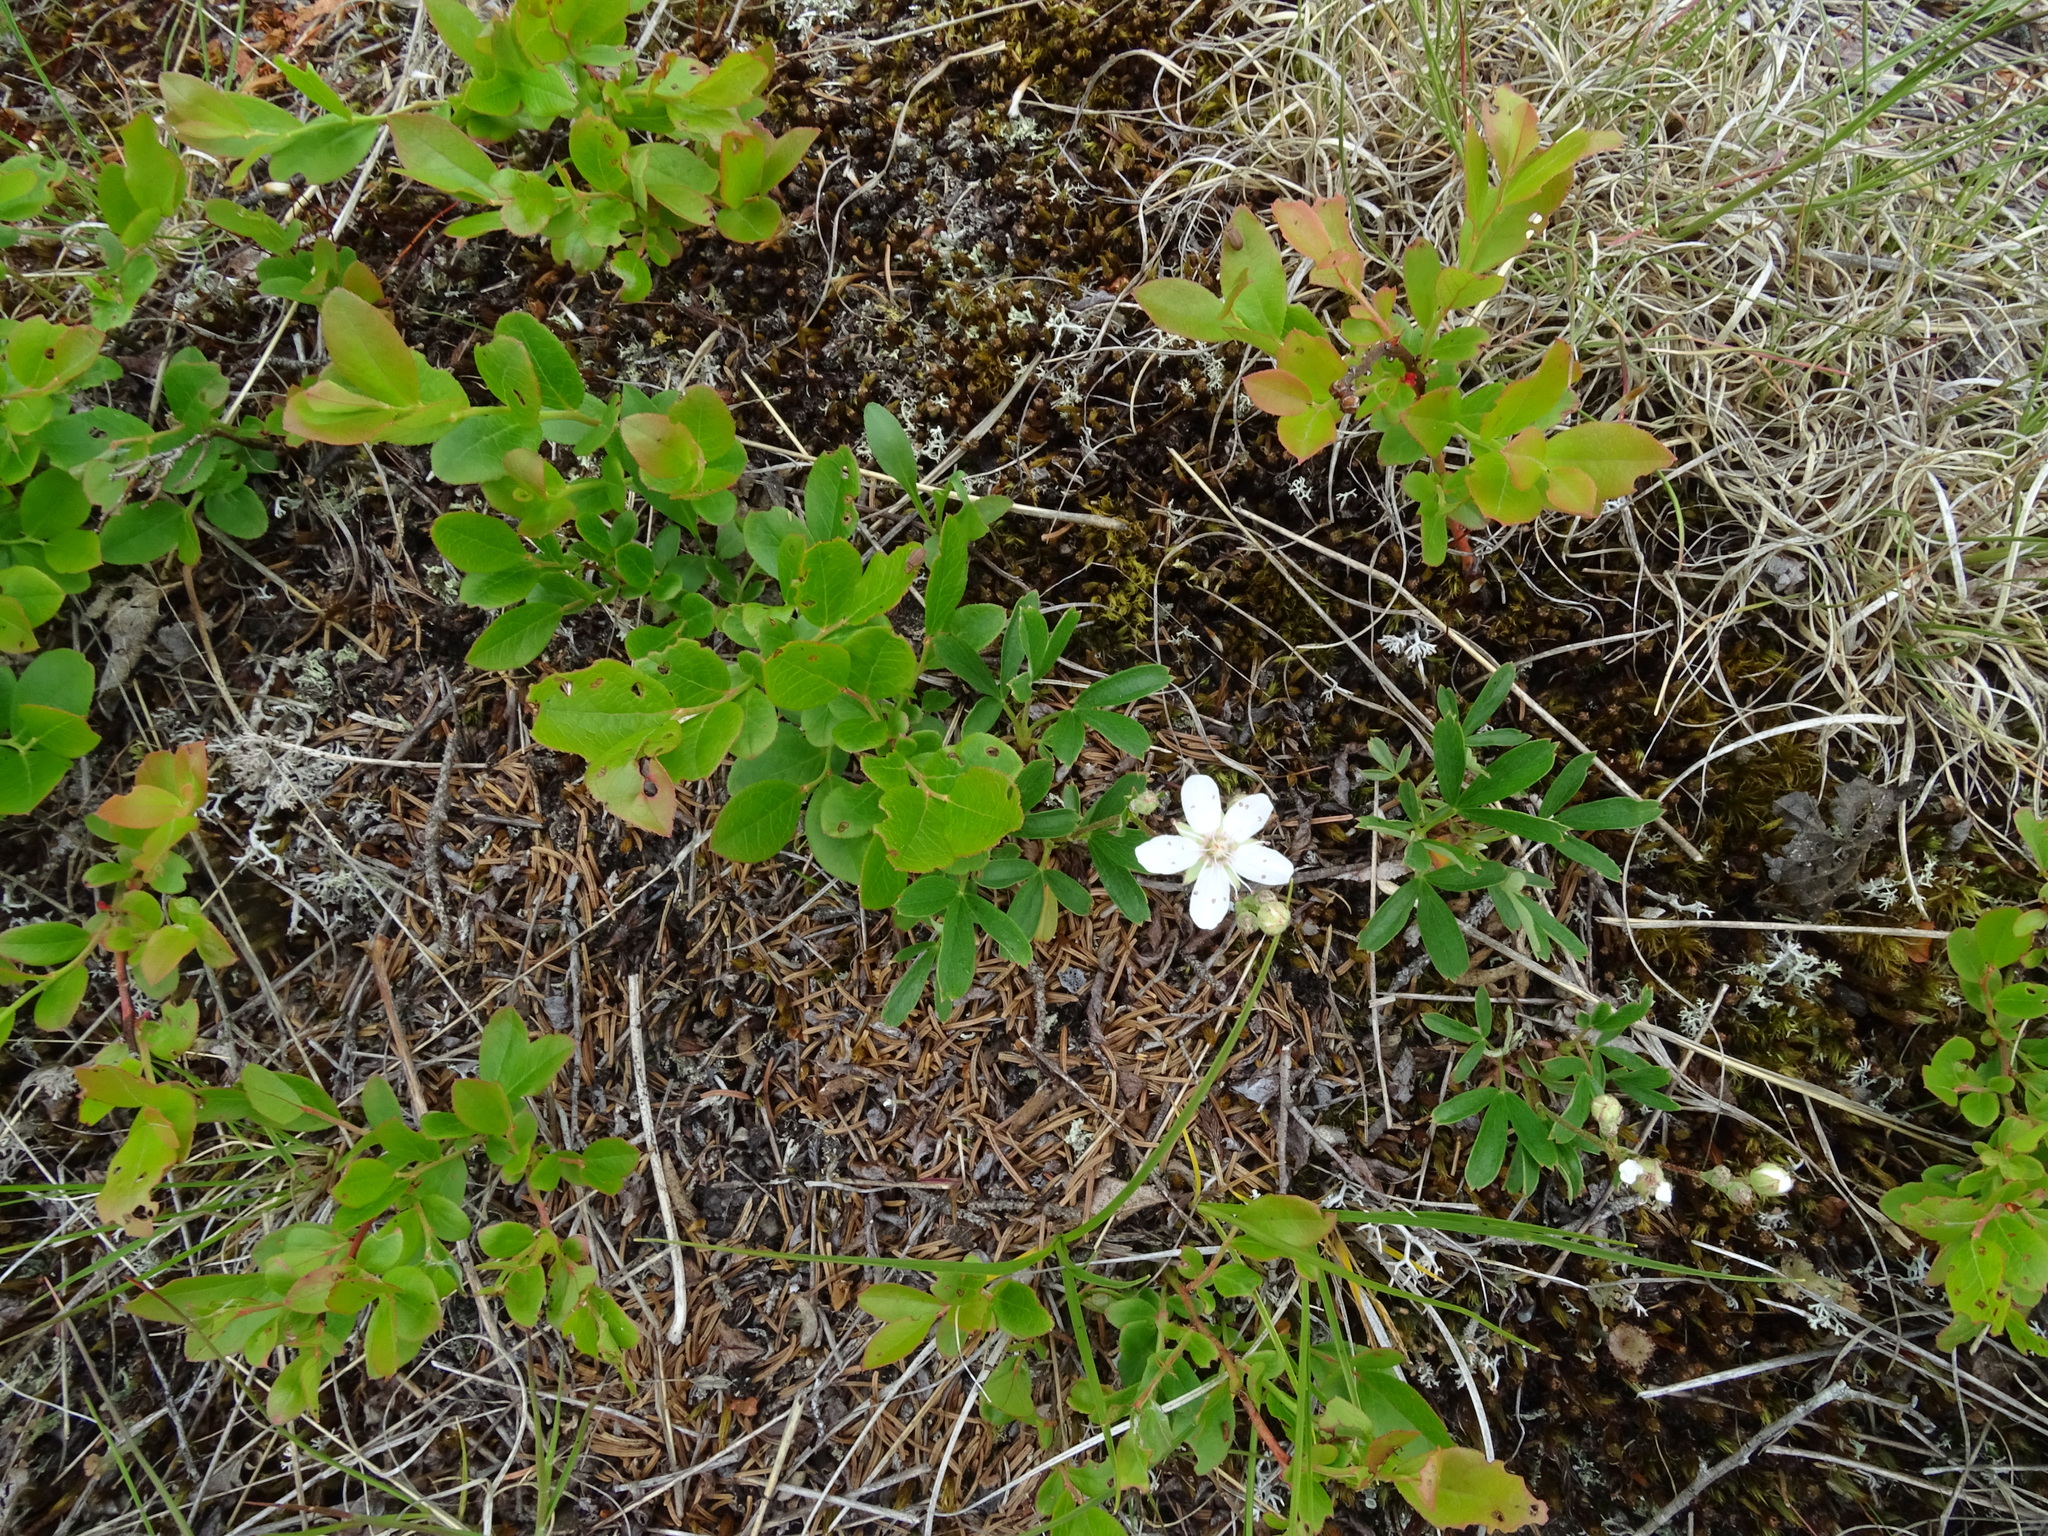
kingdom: Plantae
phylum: Tracheophyta
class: Magnoliopsida
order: Rosales
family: Rosaceae
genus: Sibbaldia
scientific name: Sibbaldia tridentata
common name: Three-toothed cinquefoil
